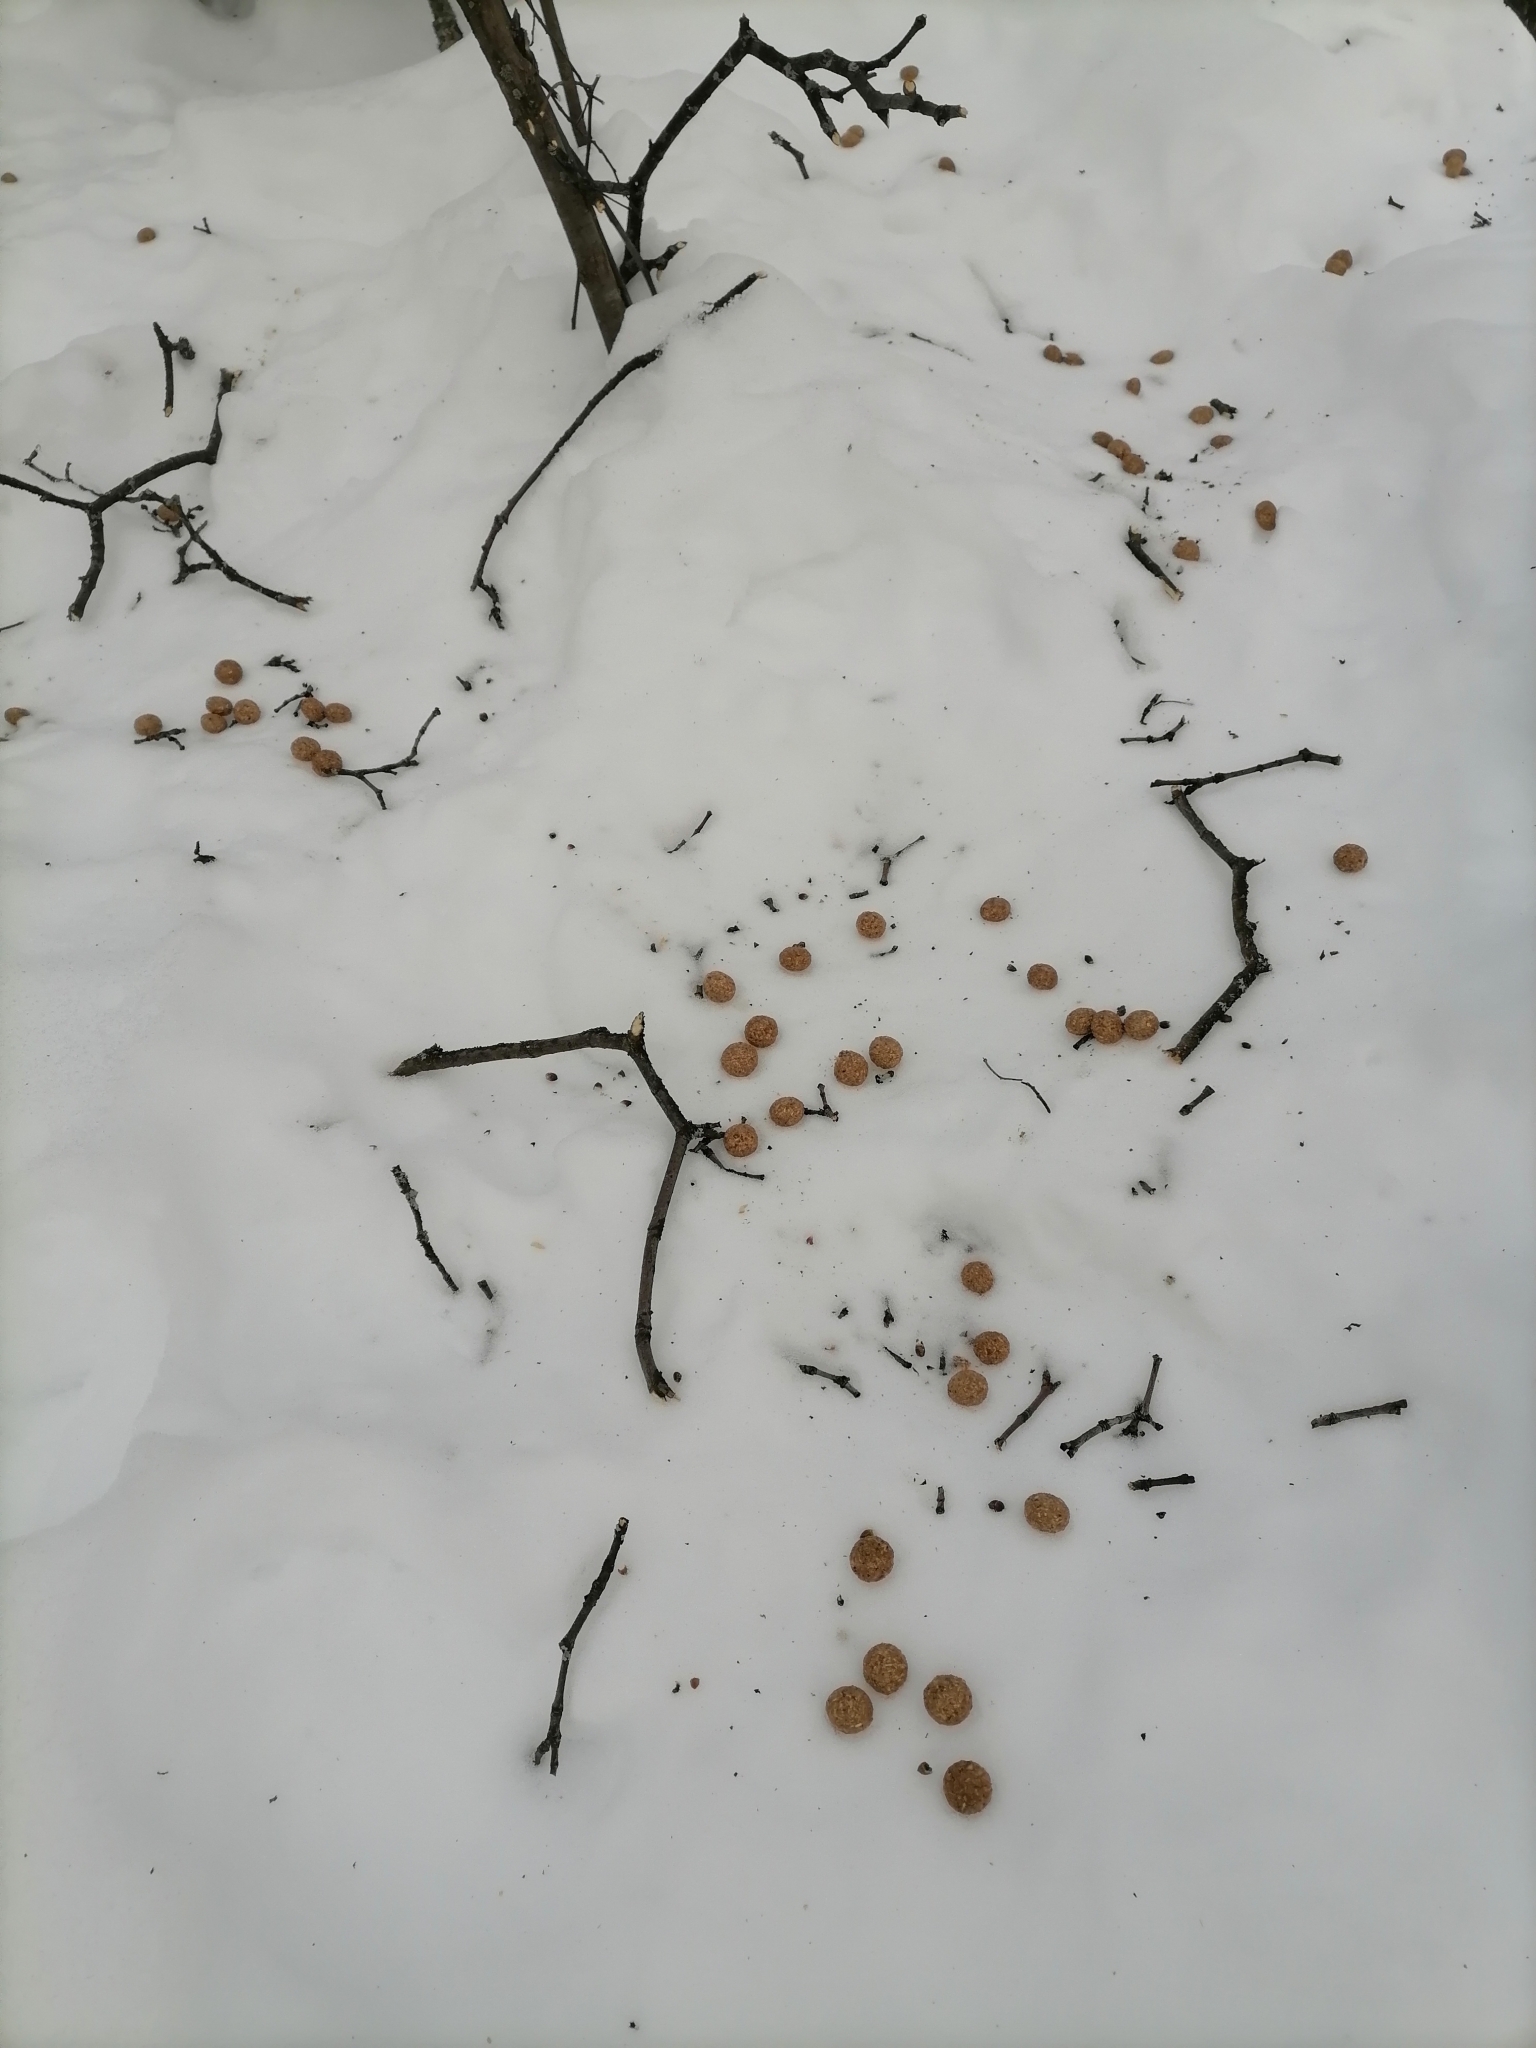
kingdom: Animalia
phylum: Chordata
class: Mammalia
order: Lagomorpha
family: Leporidae
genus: Lepus
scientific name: Lepus timidus
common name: Mountain hare
